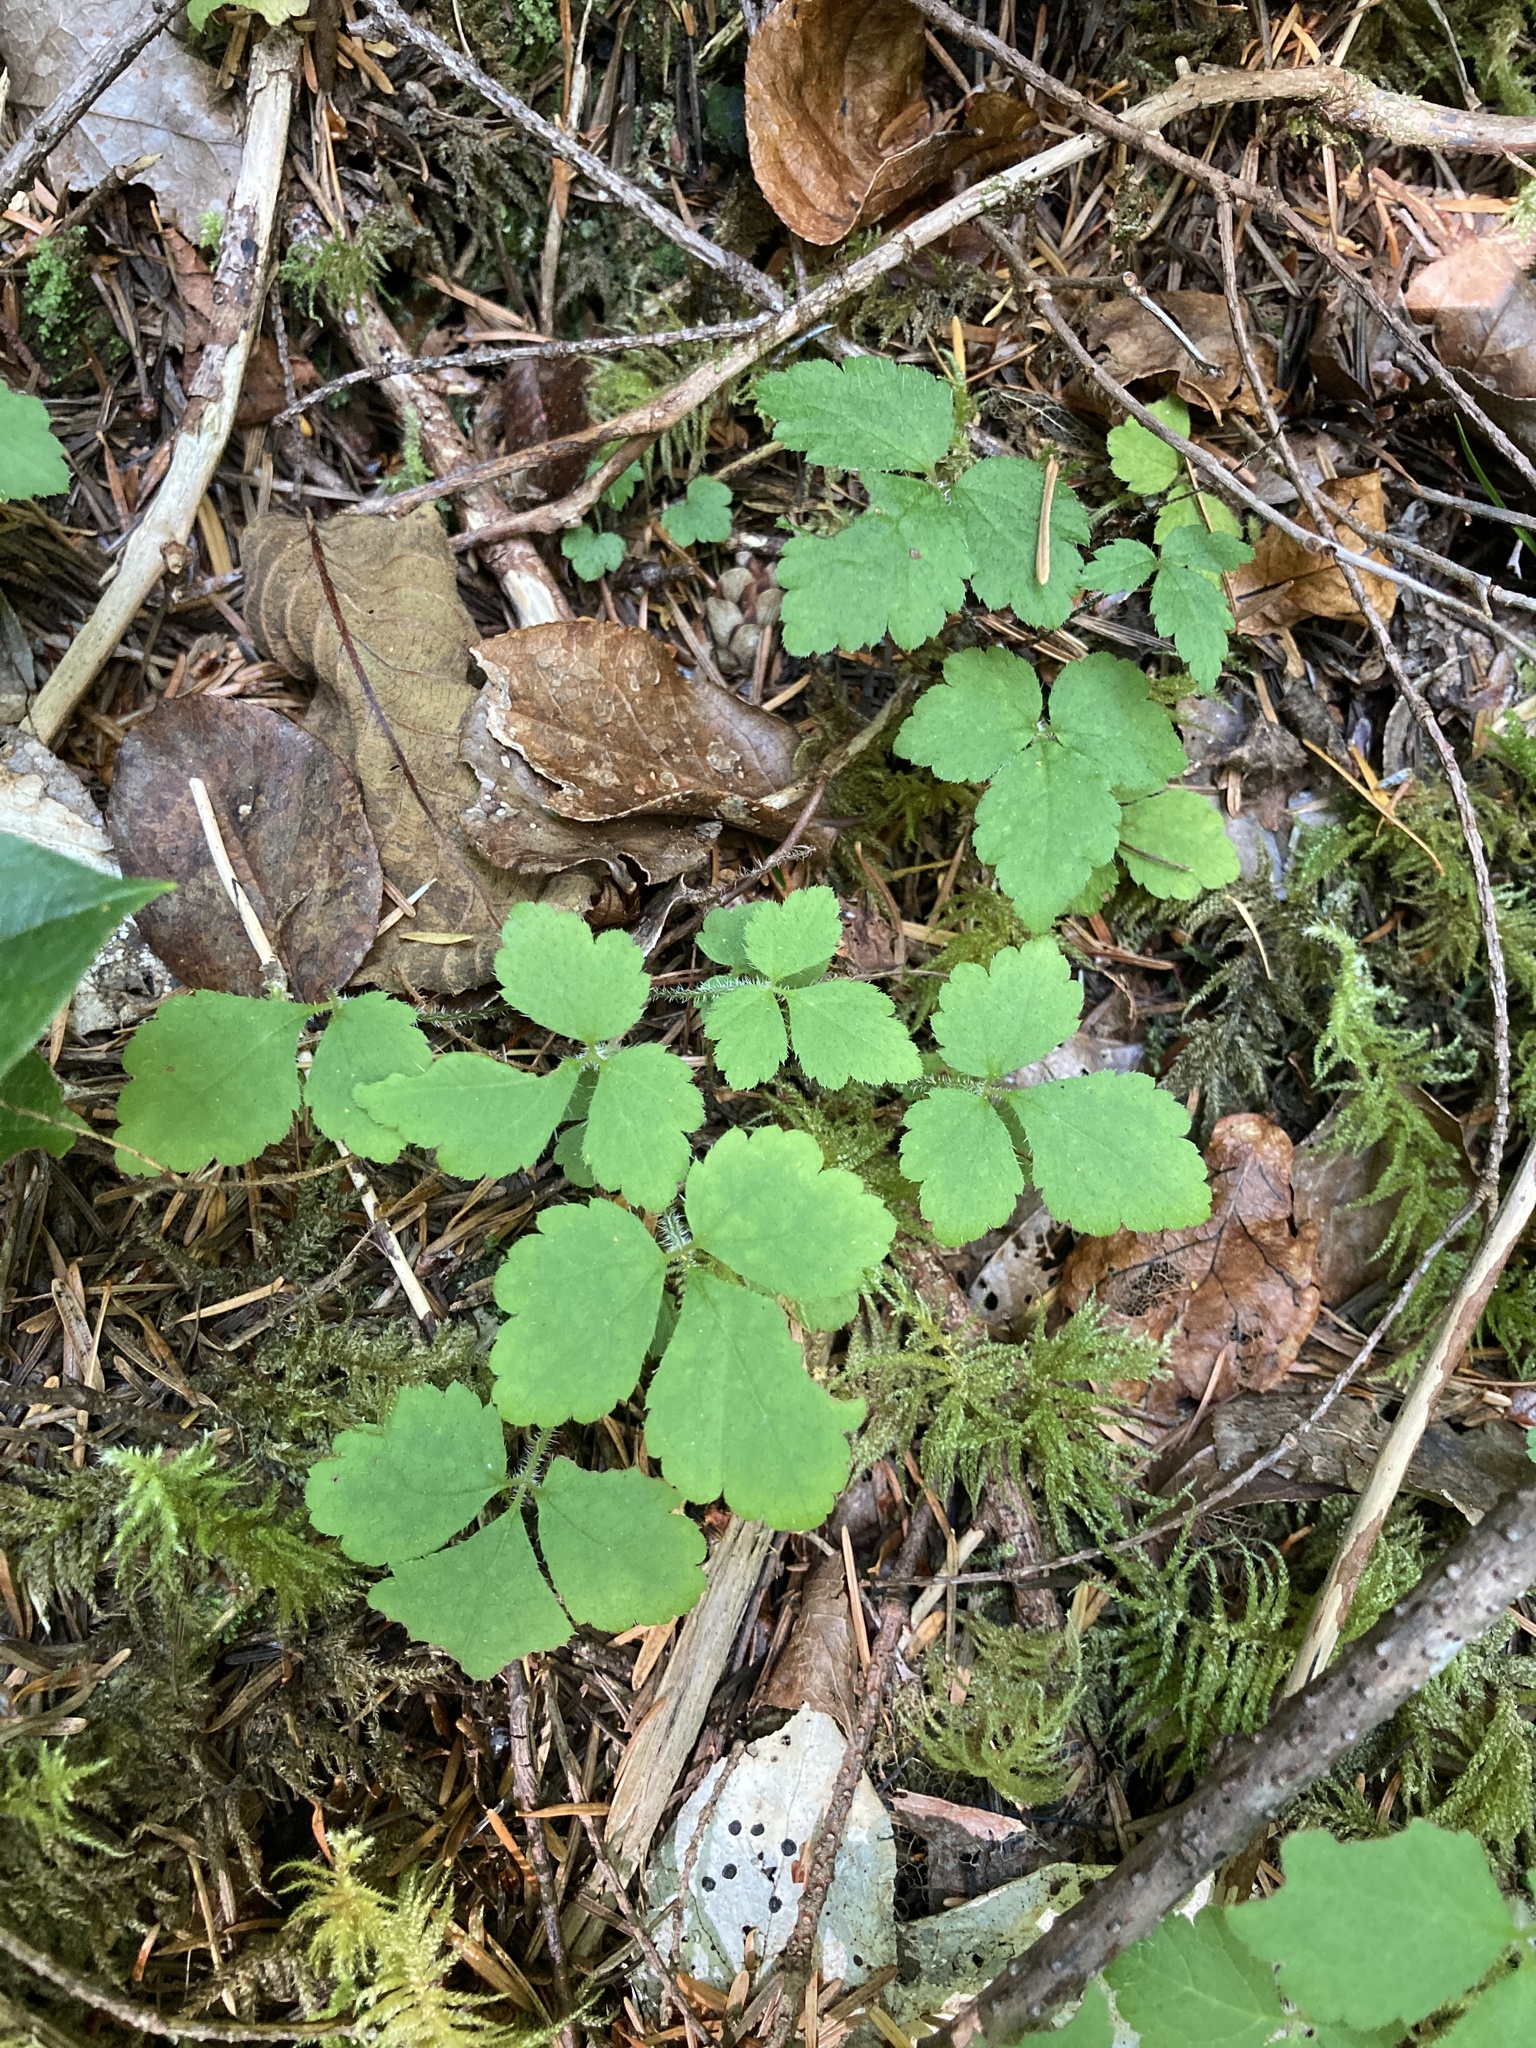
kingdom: Plantae
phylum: Tracheophyta
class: Magnoliopsida
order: Saxifragales
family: Saxifragaceae
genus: Tiarella
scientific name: Tiarella trifoliata
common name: Sugar-scoop
